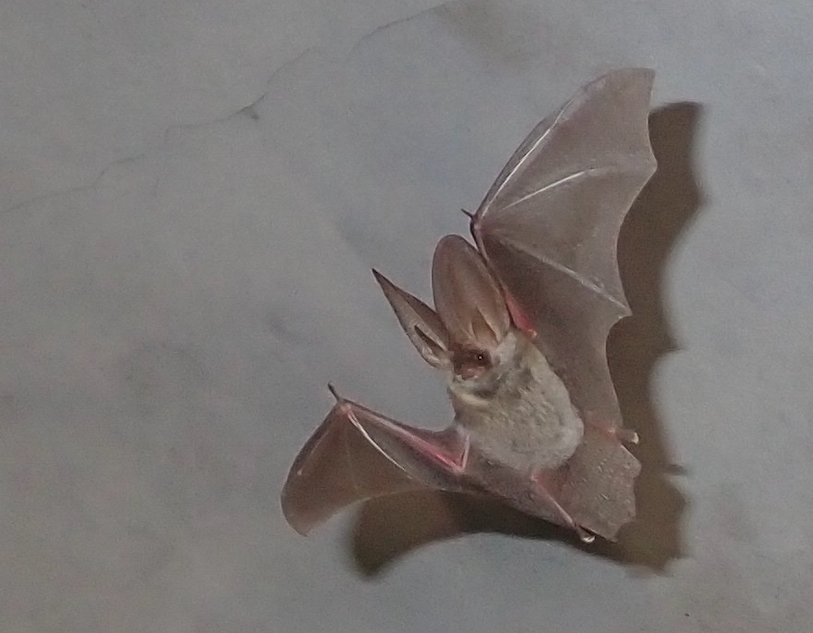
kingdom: Animalia
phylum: Chordata
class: Mammalia
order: Chiroptera
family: Vespertilionidae
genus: Plecotus
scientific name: Plecotus kolombatovici
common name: Kolombatovic's long-eared bat
